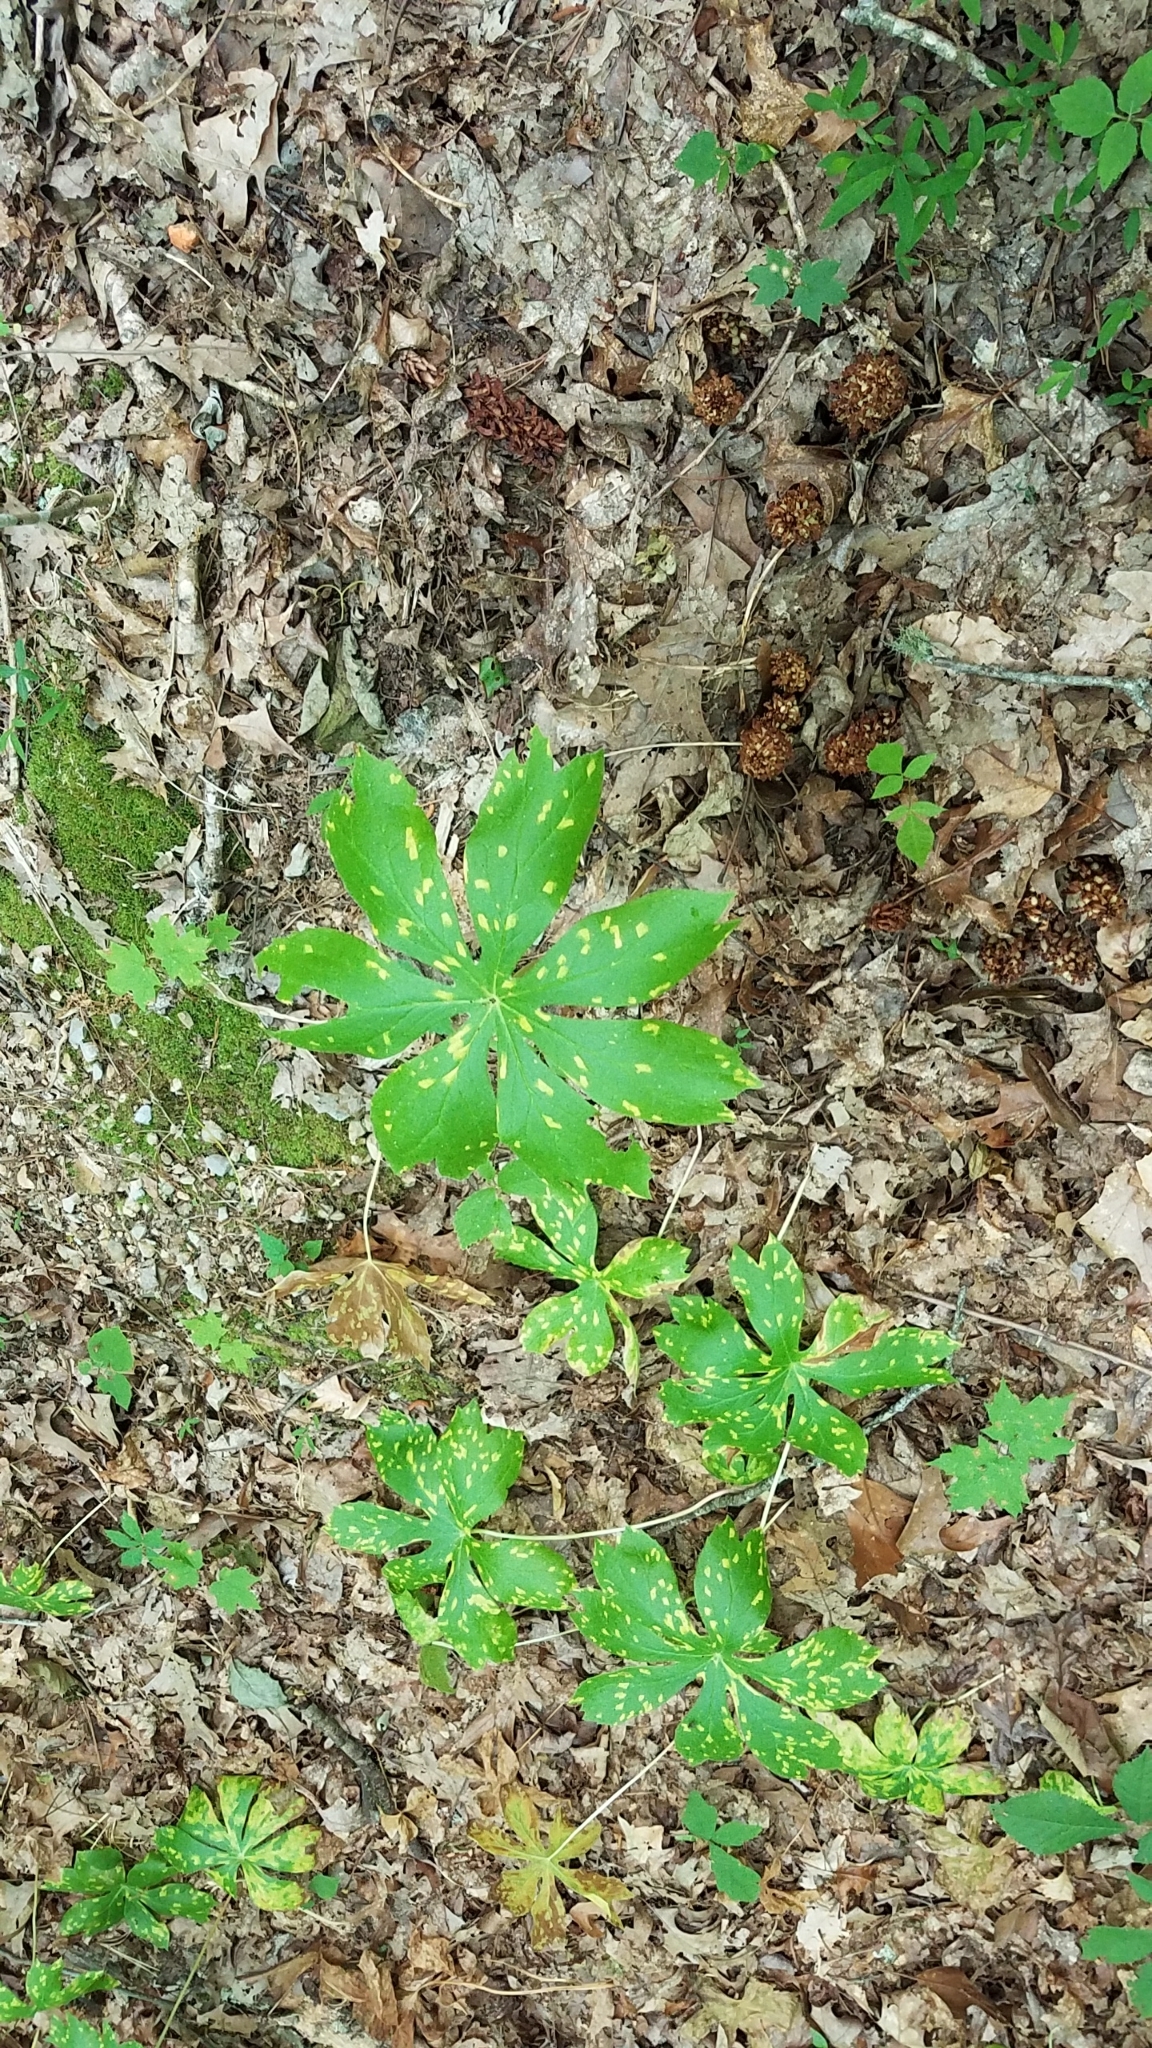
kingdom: Plantae
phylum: Tracheophyta
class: Magnoliopsida
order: Ranunculales
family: Berberidaceae
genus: Podophyllum
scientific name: Podophyllum peltatum
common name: Wild mandrake
